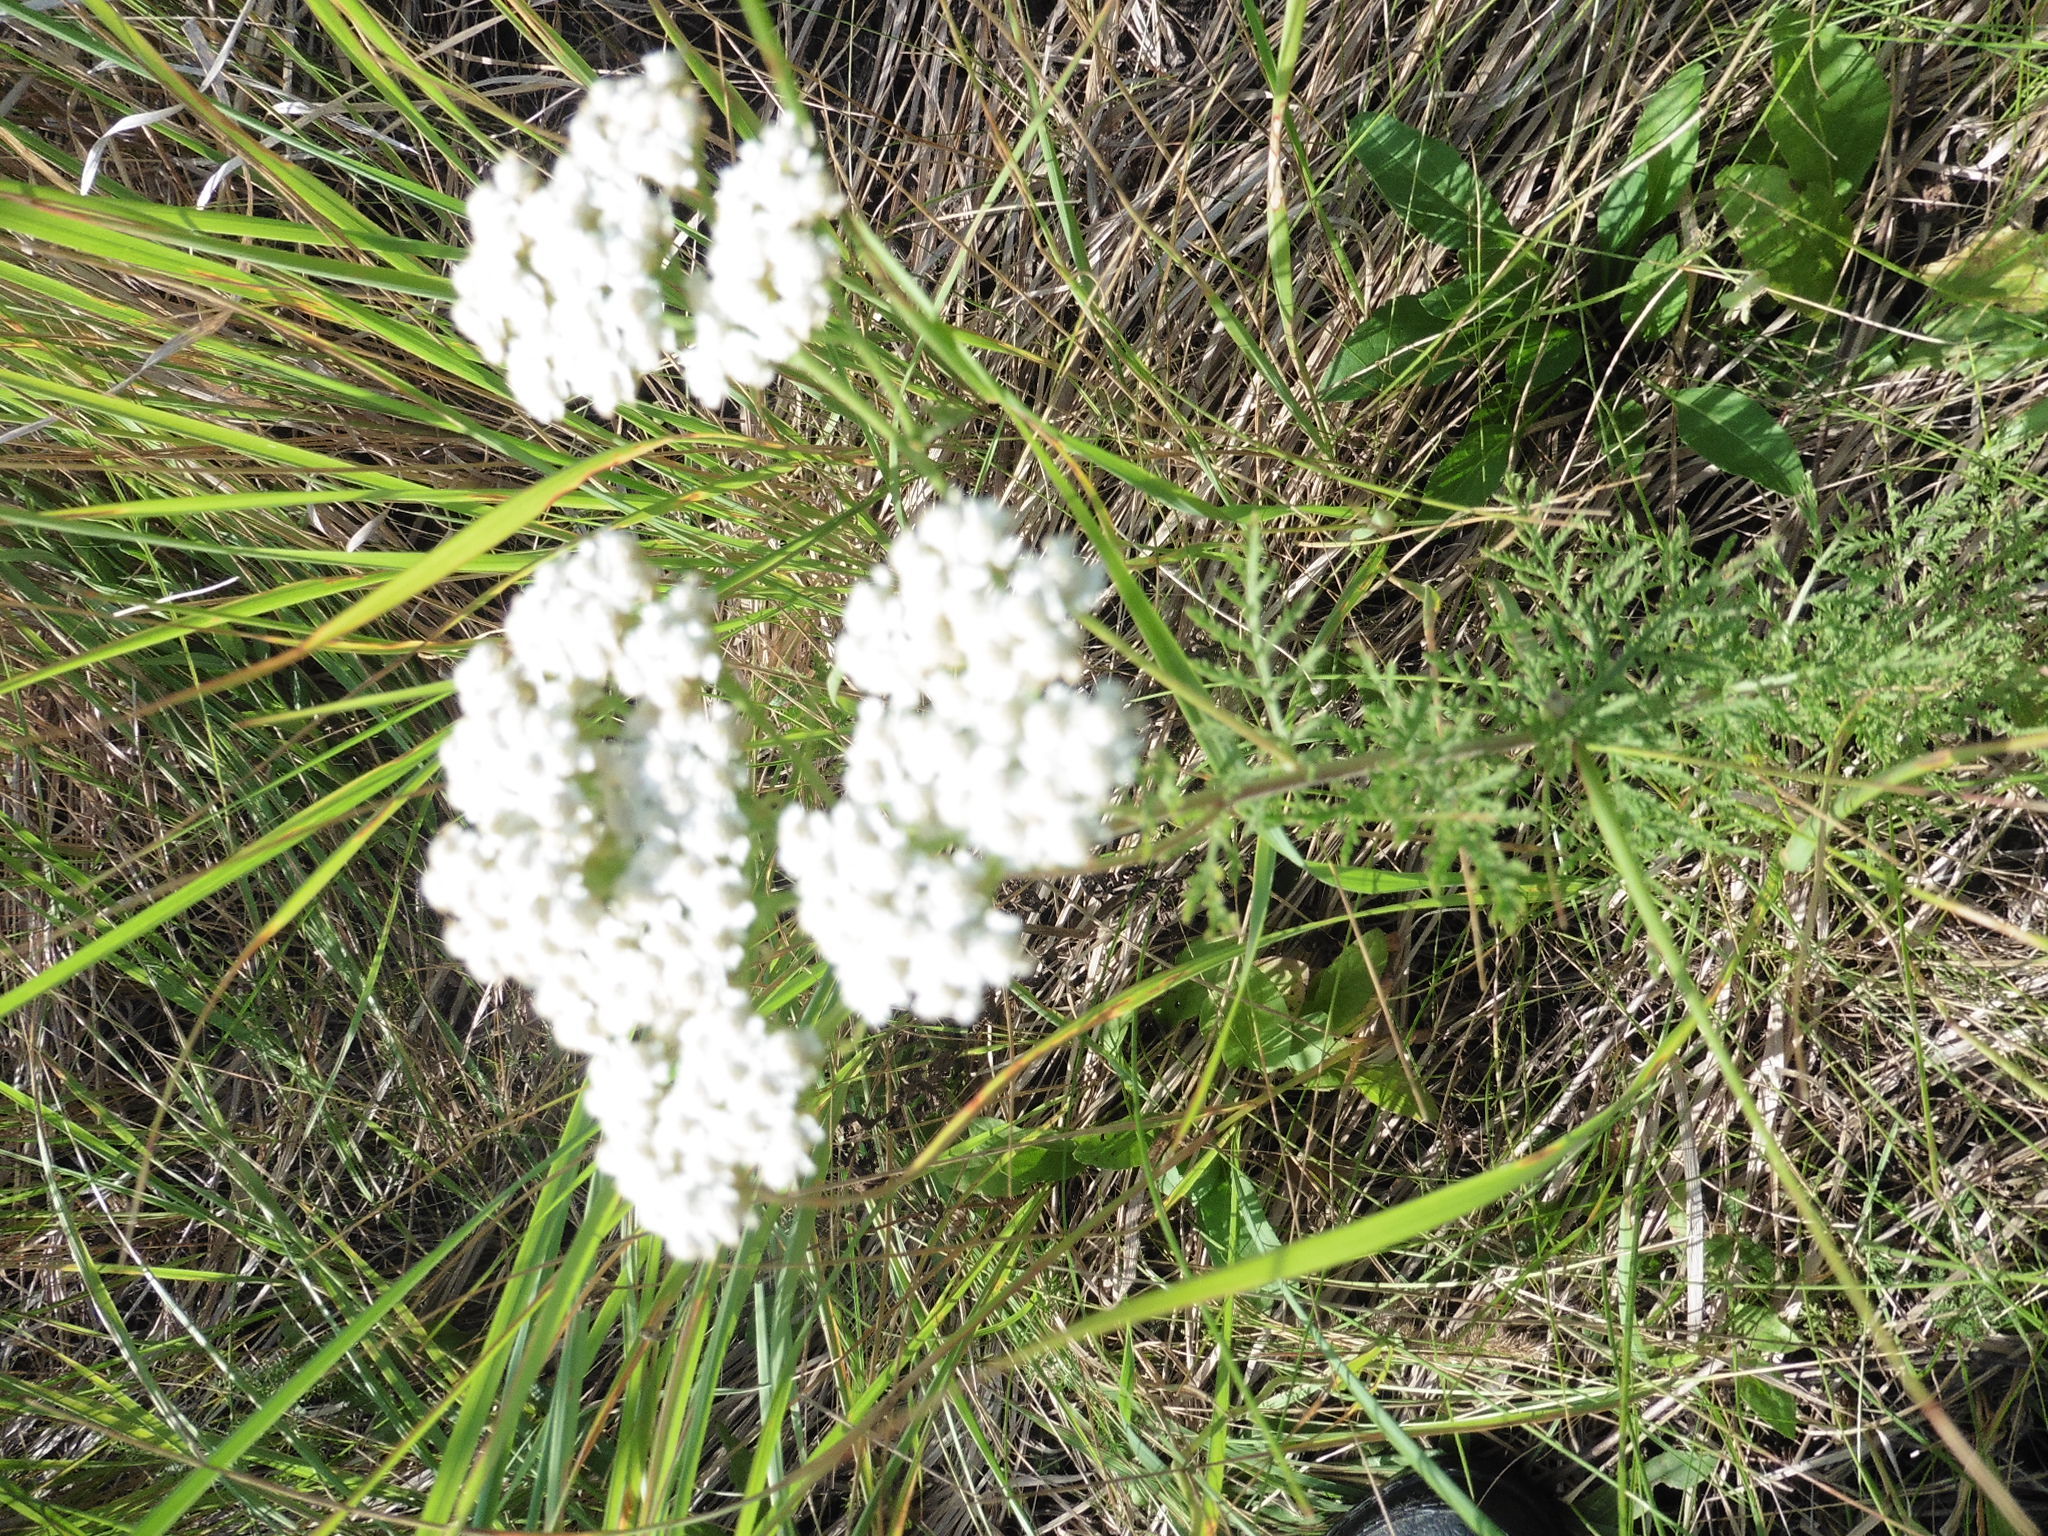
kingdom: Plantae
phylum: Tracheophyta
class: Magnoliopsida
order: Asterales
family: Asteraceae
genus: Achillea
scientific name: Achillea nobilis
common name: Noble yarrow
